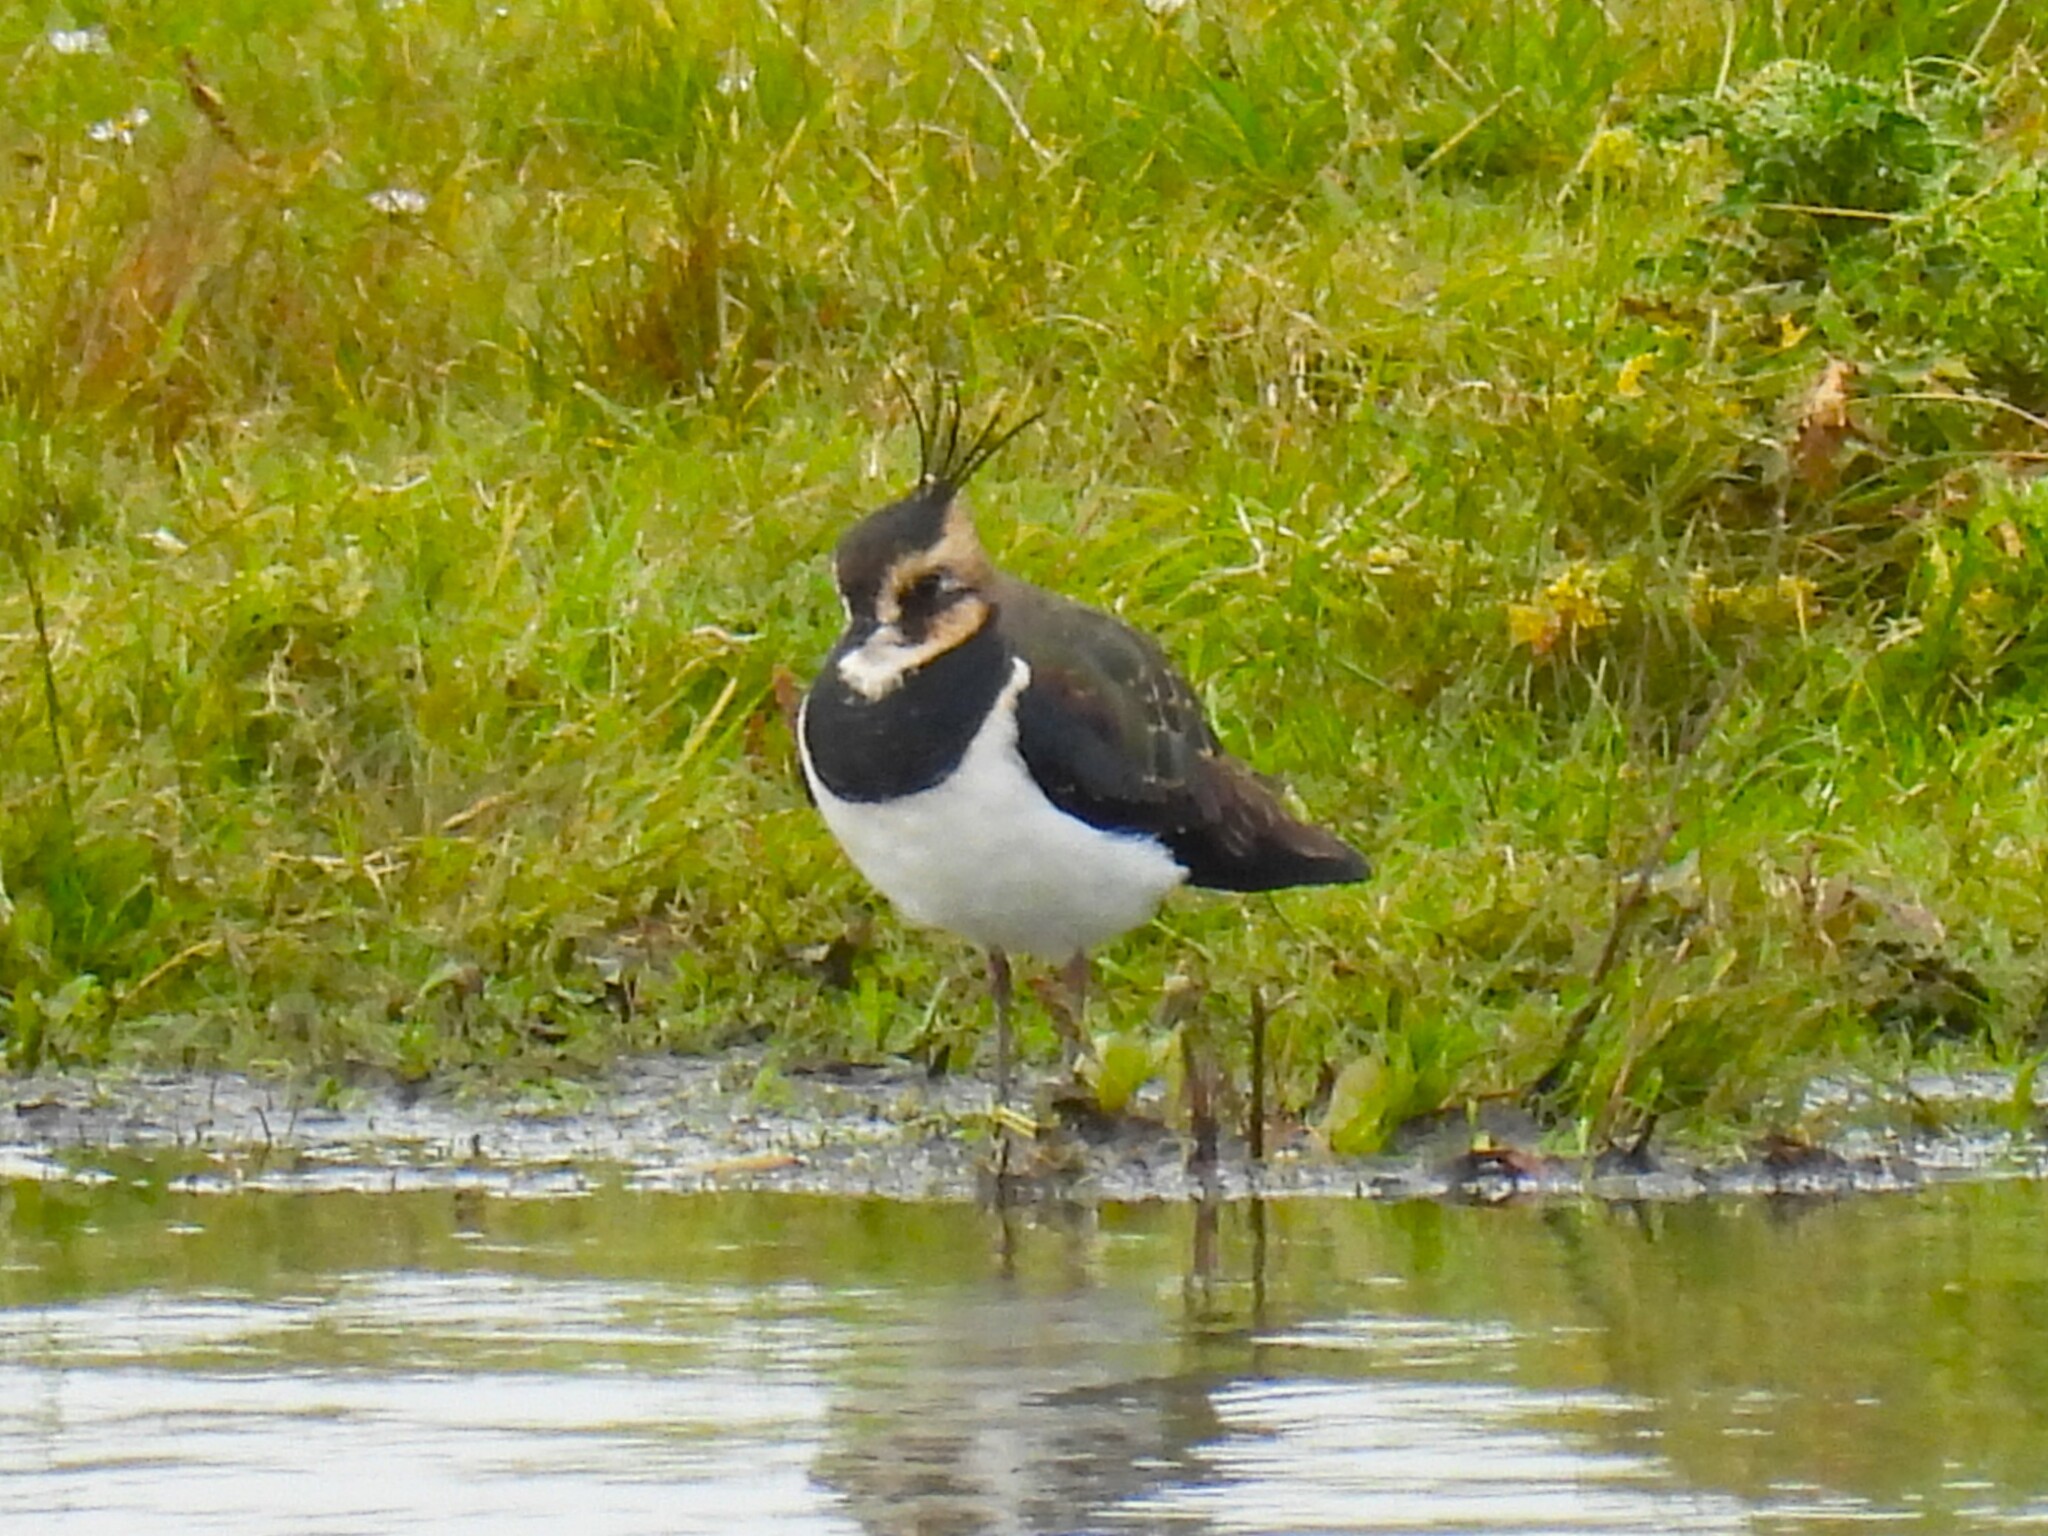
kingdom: Animalia
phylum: Chordata
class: Aves
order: Charadriiformes
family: Charadriidae
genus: Vanellus
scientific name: Vanellus vanellus
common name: Northern lapwing
